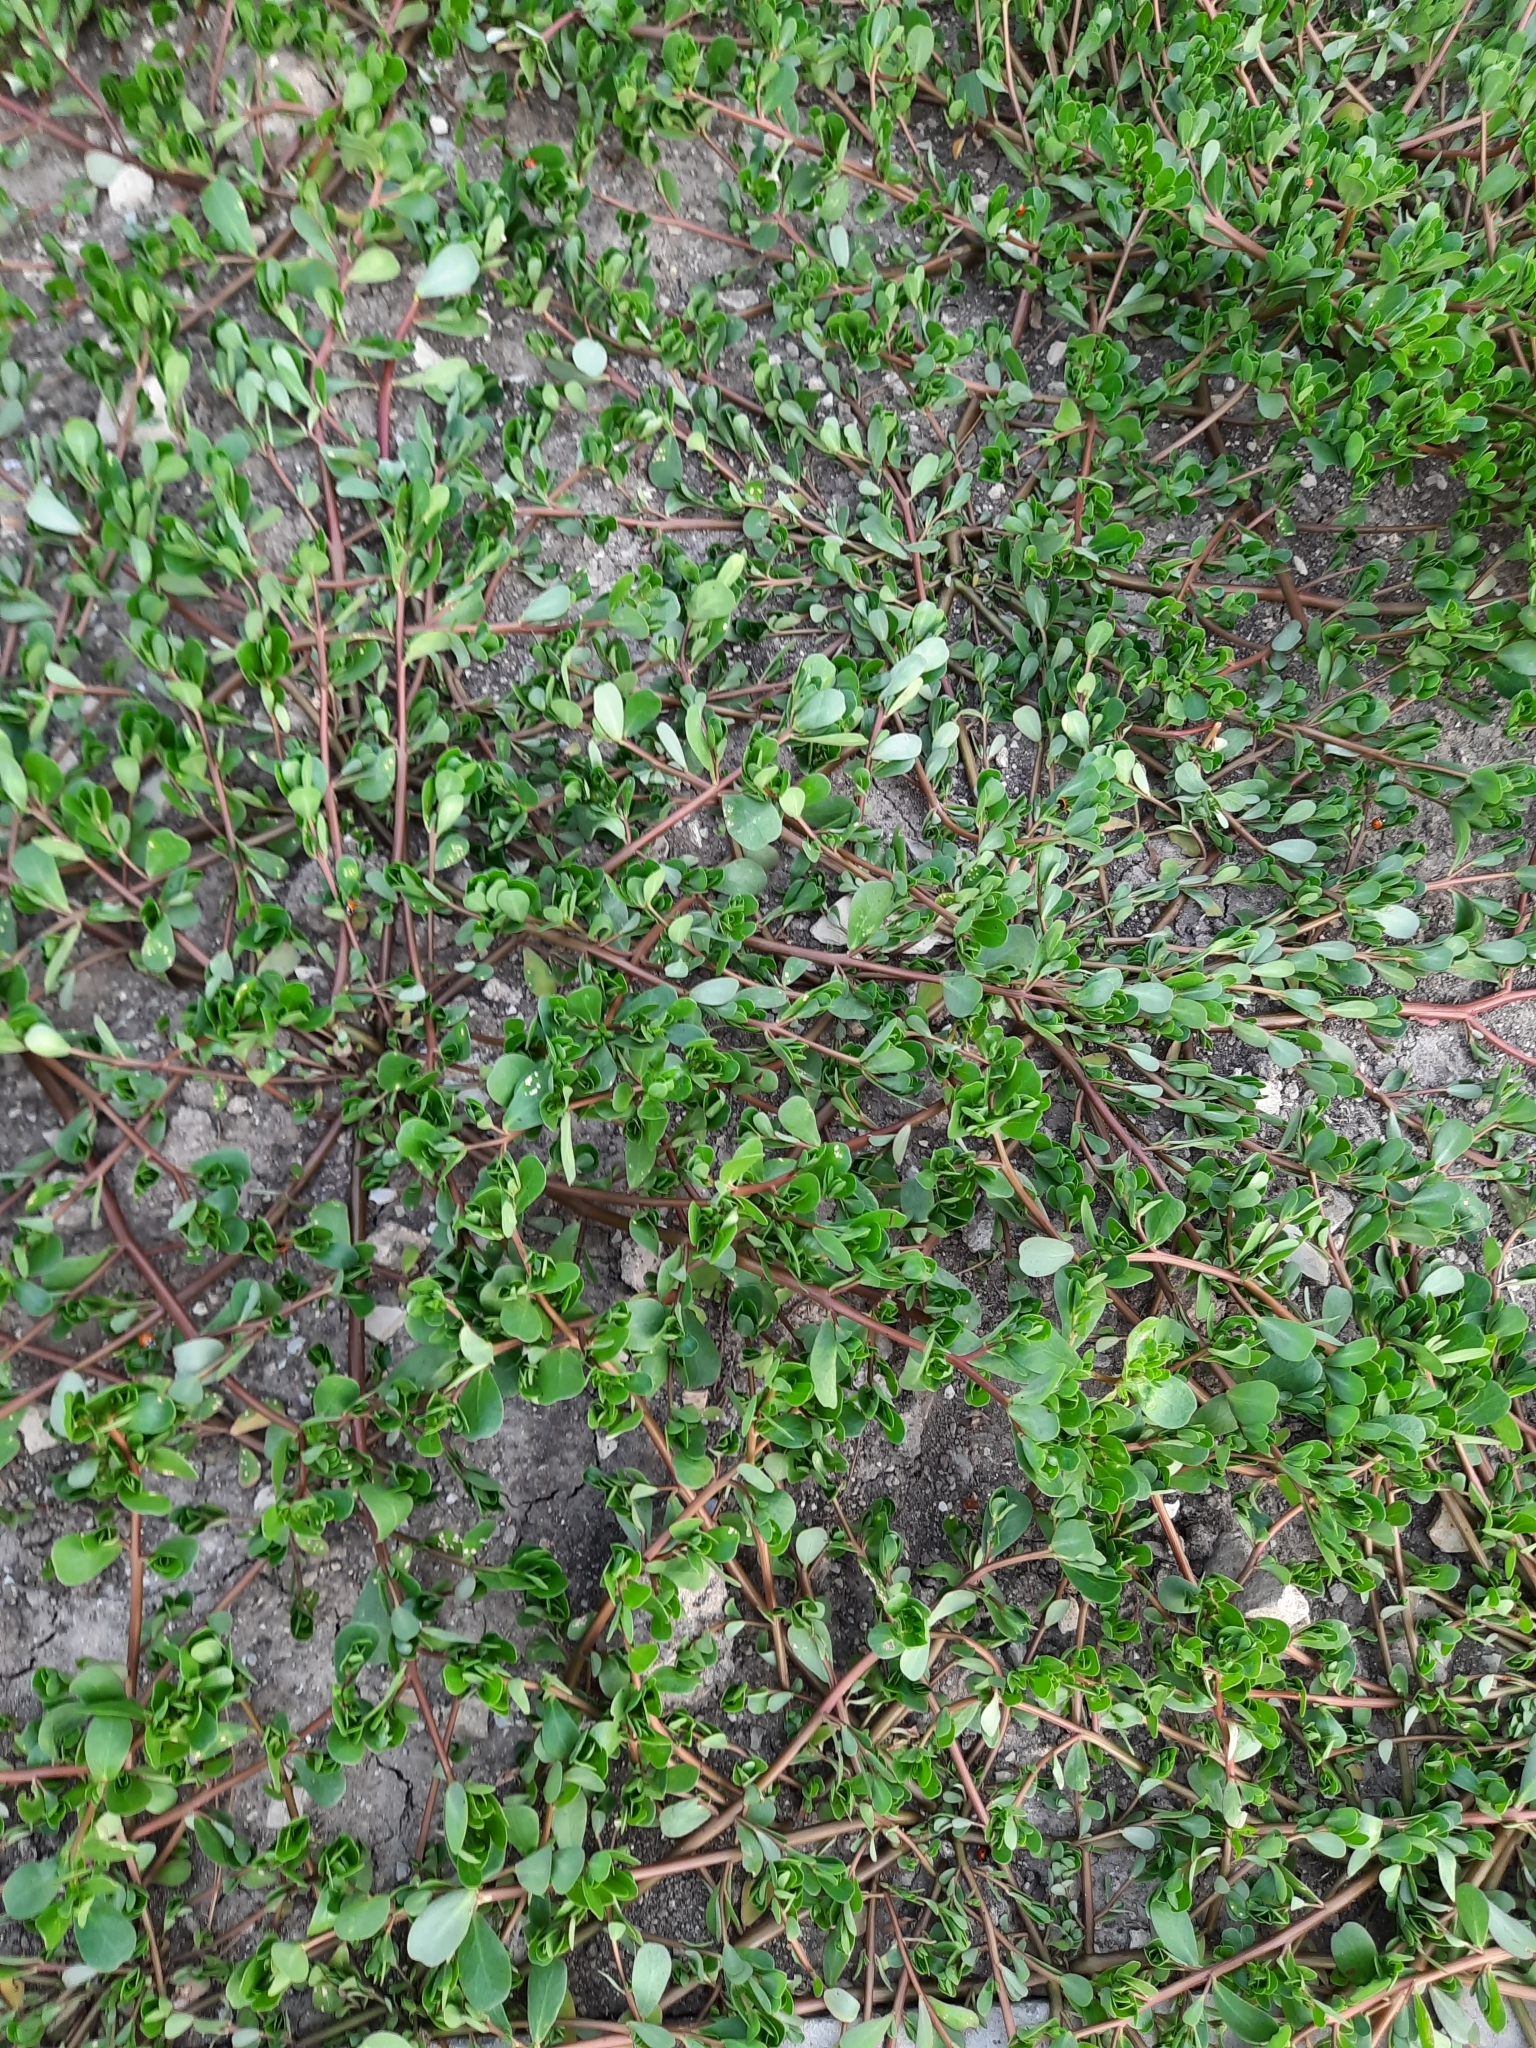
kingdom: Plantae
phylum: Tracheophyta
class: Magnoliopsida
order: Caryophyllales
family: Portulacaceae
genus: Portulaca
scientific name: Portulaca oleracea
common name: Common purslane
